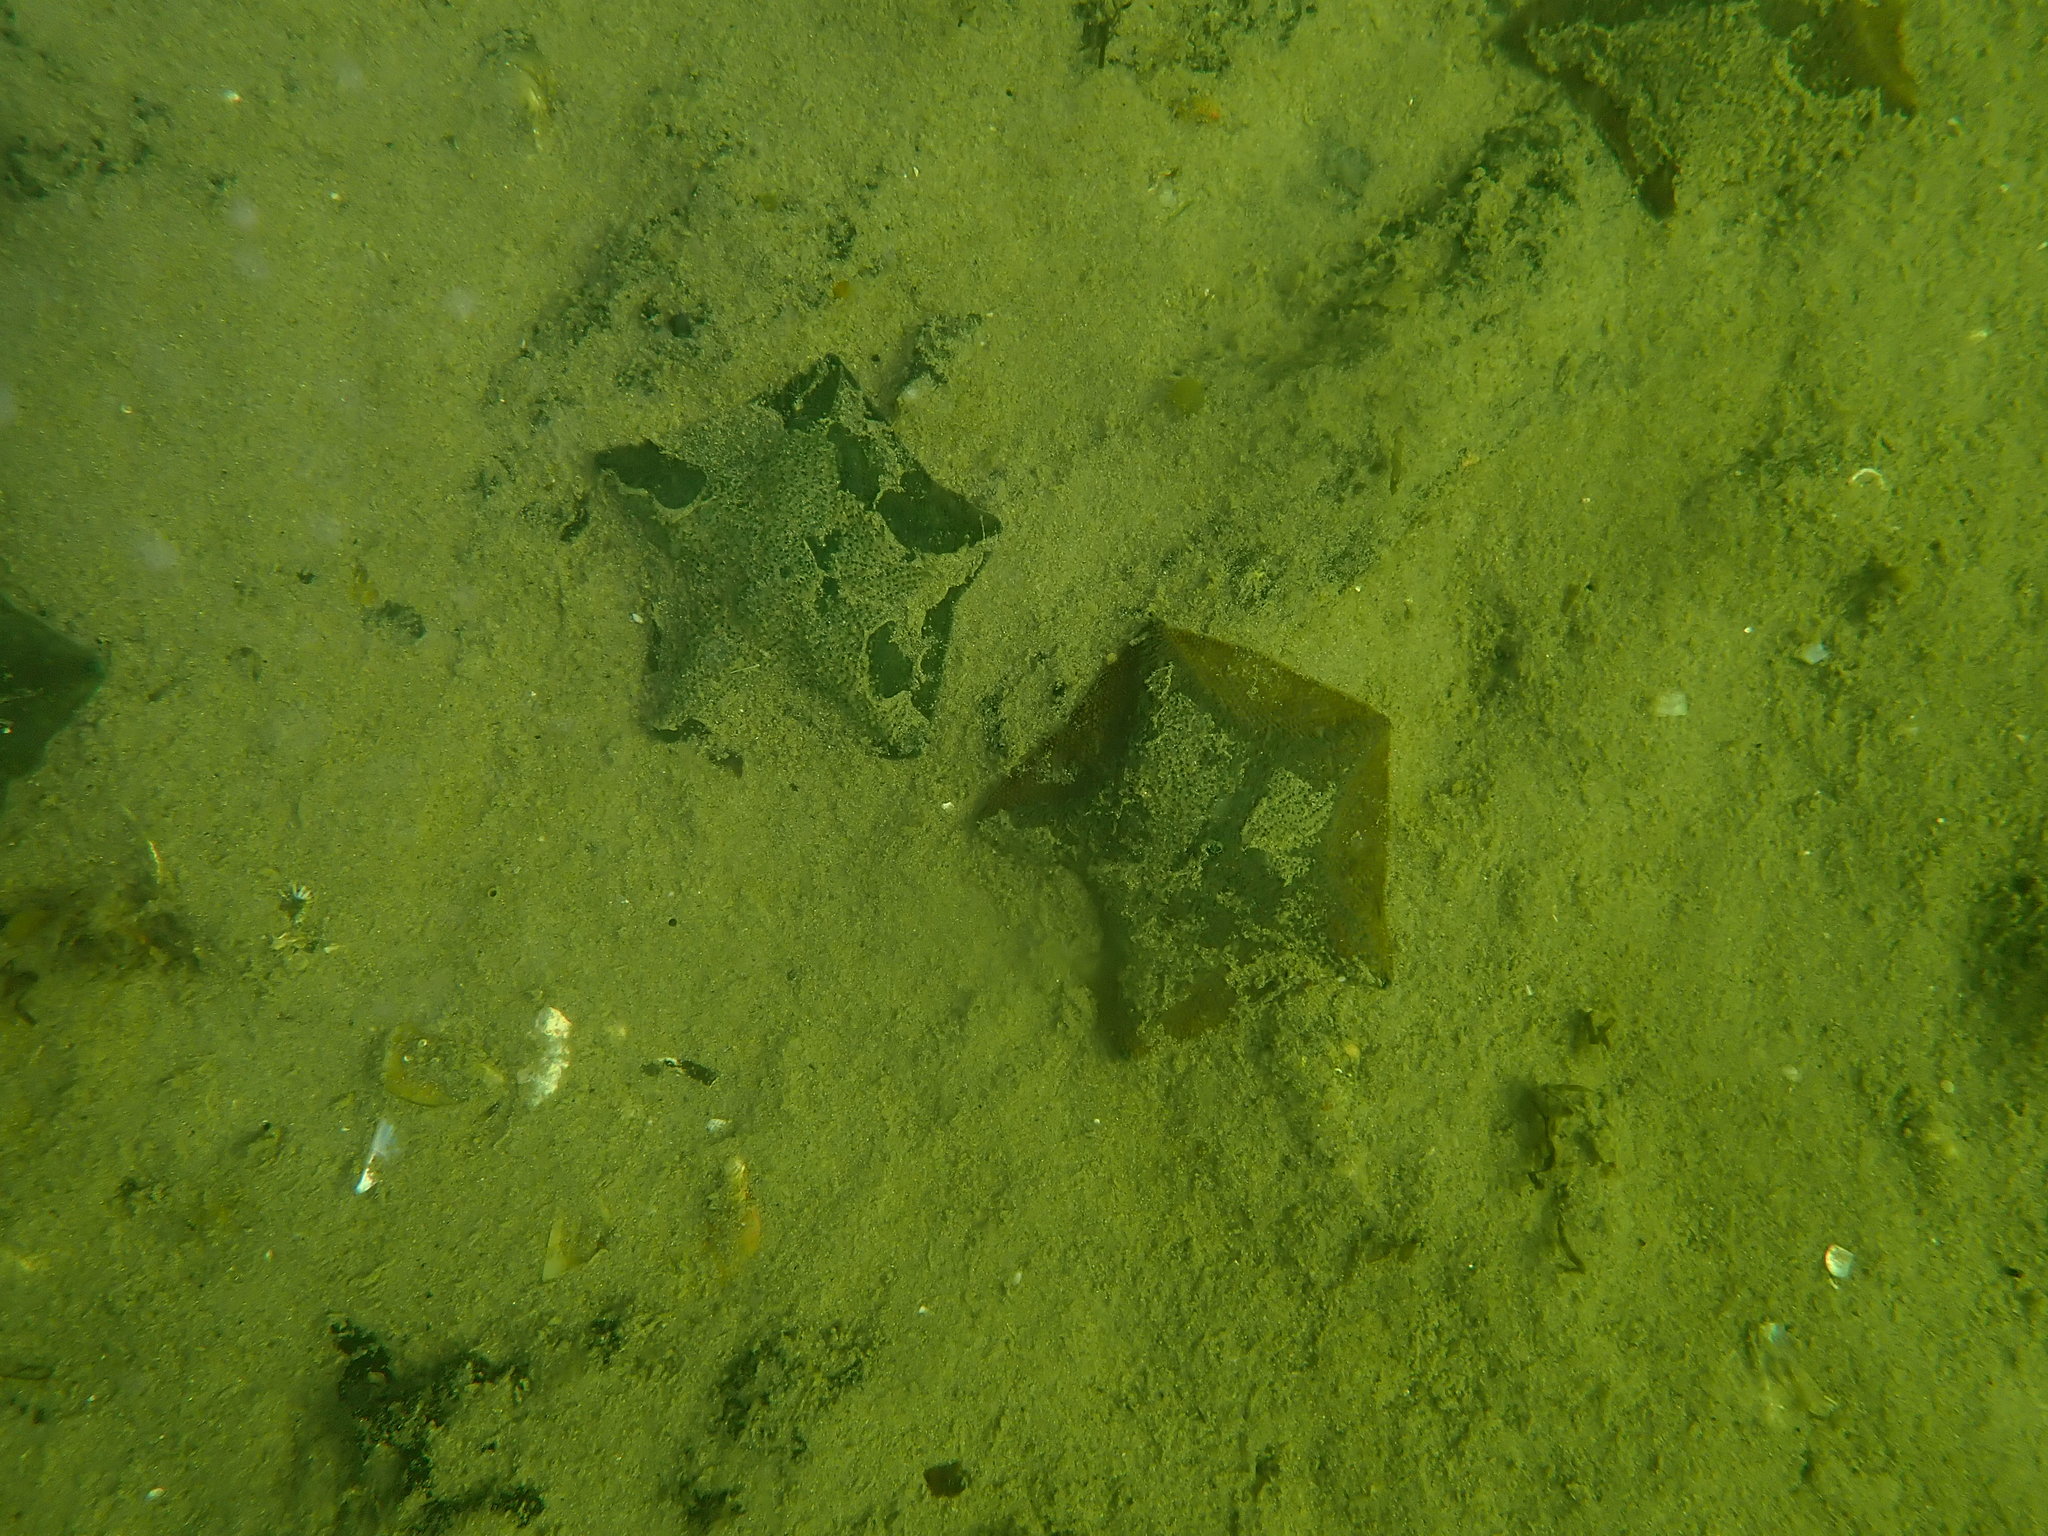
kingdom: Animalia
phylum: Echinodermata
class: Asteroidea
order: Valvatida
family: Asterinidae
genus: Patiriella
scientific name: Patiriella regularis
